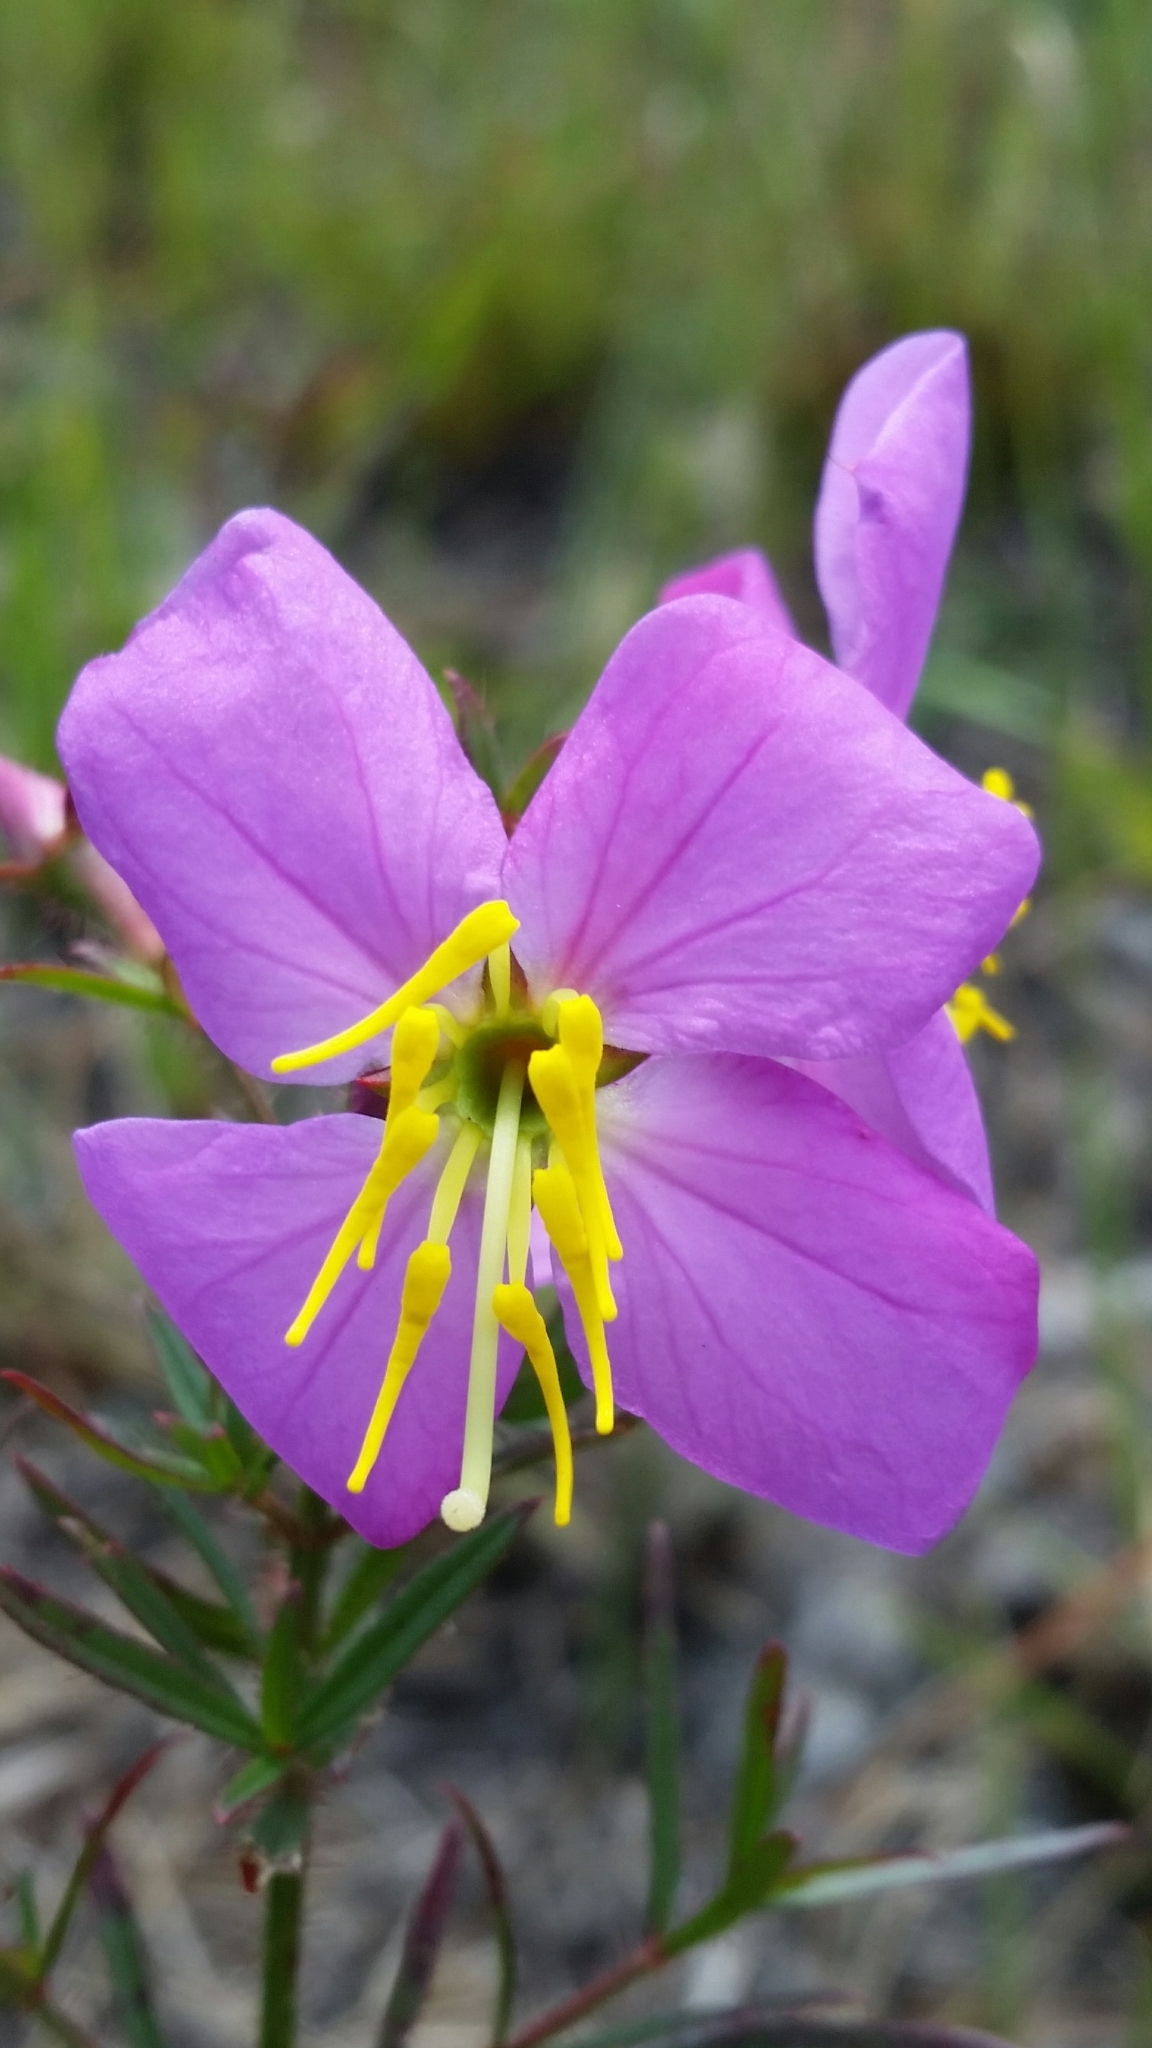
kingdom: Plantae
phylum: Tracheophyta
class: Magnoliopsida
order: Myrtales
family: Melastomataceae
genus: Rhexia
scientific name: Rhexia cubensis
